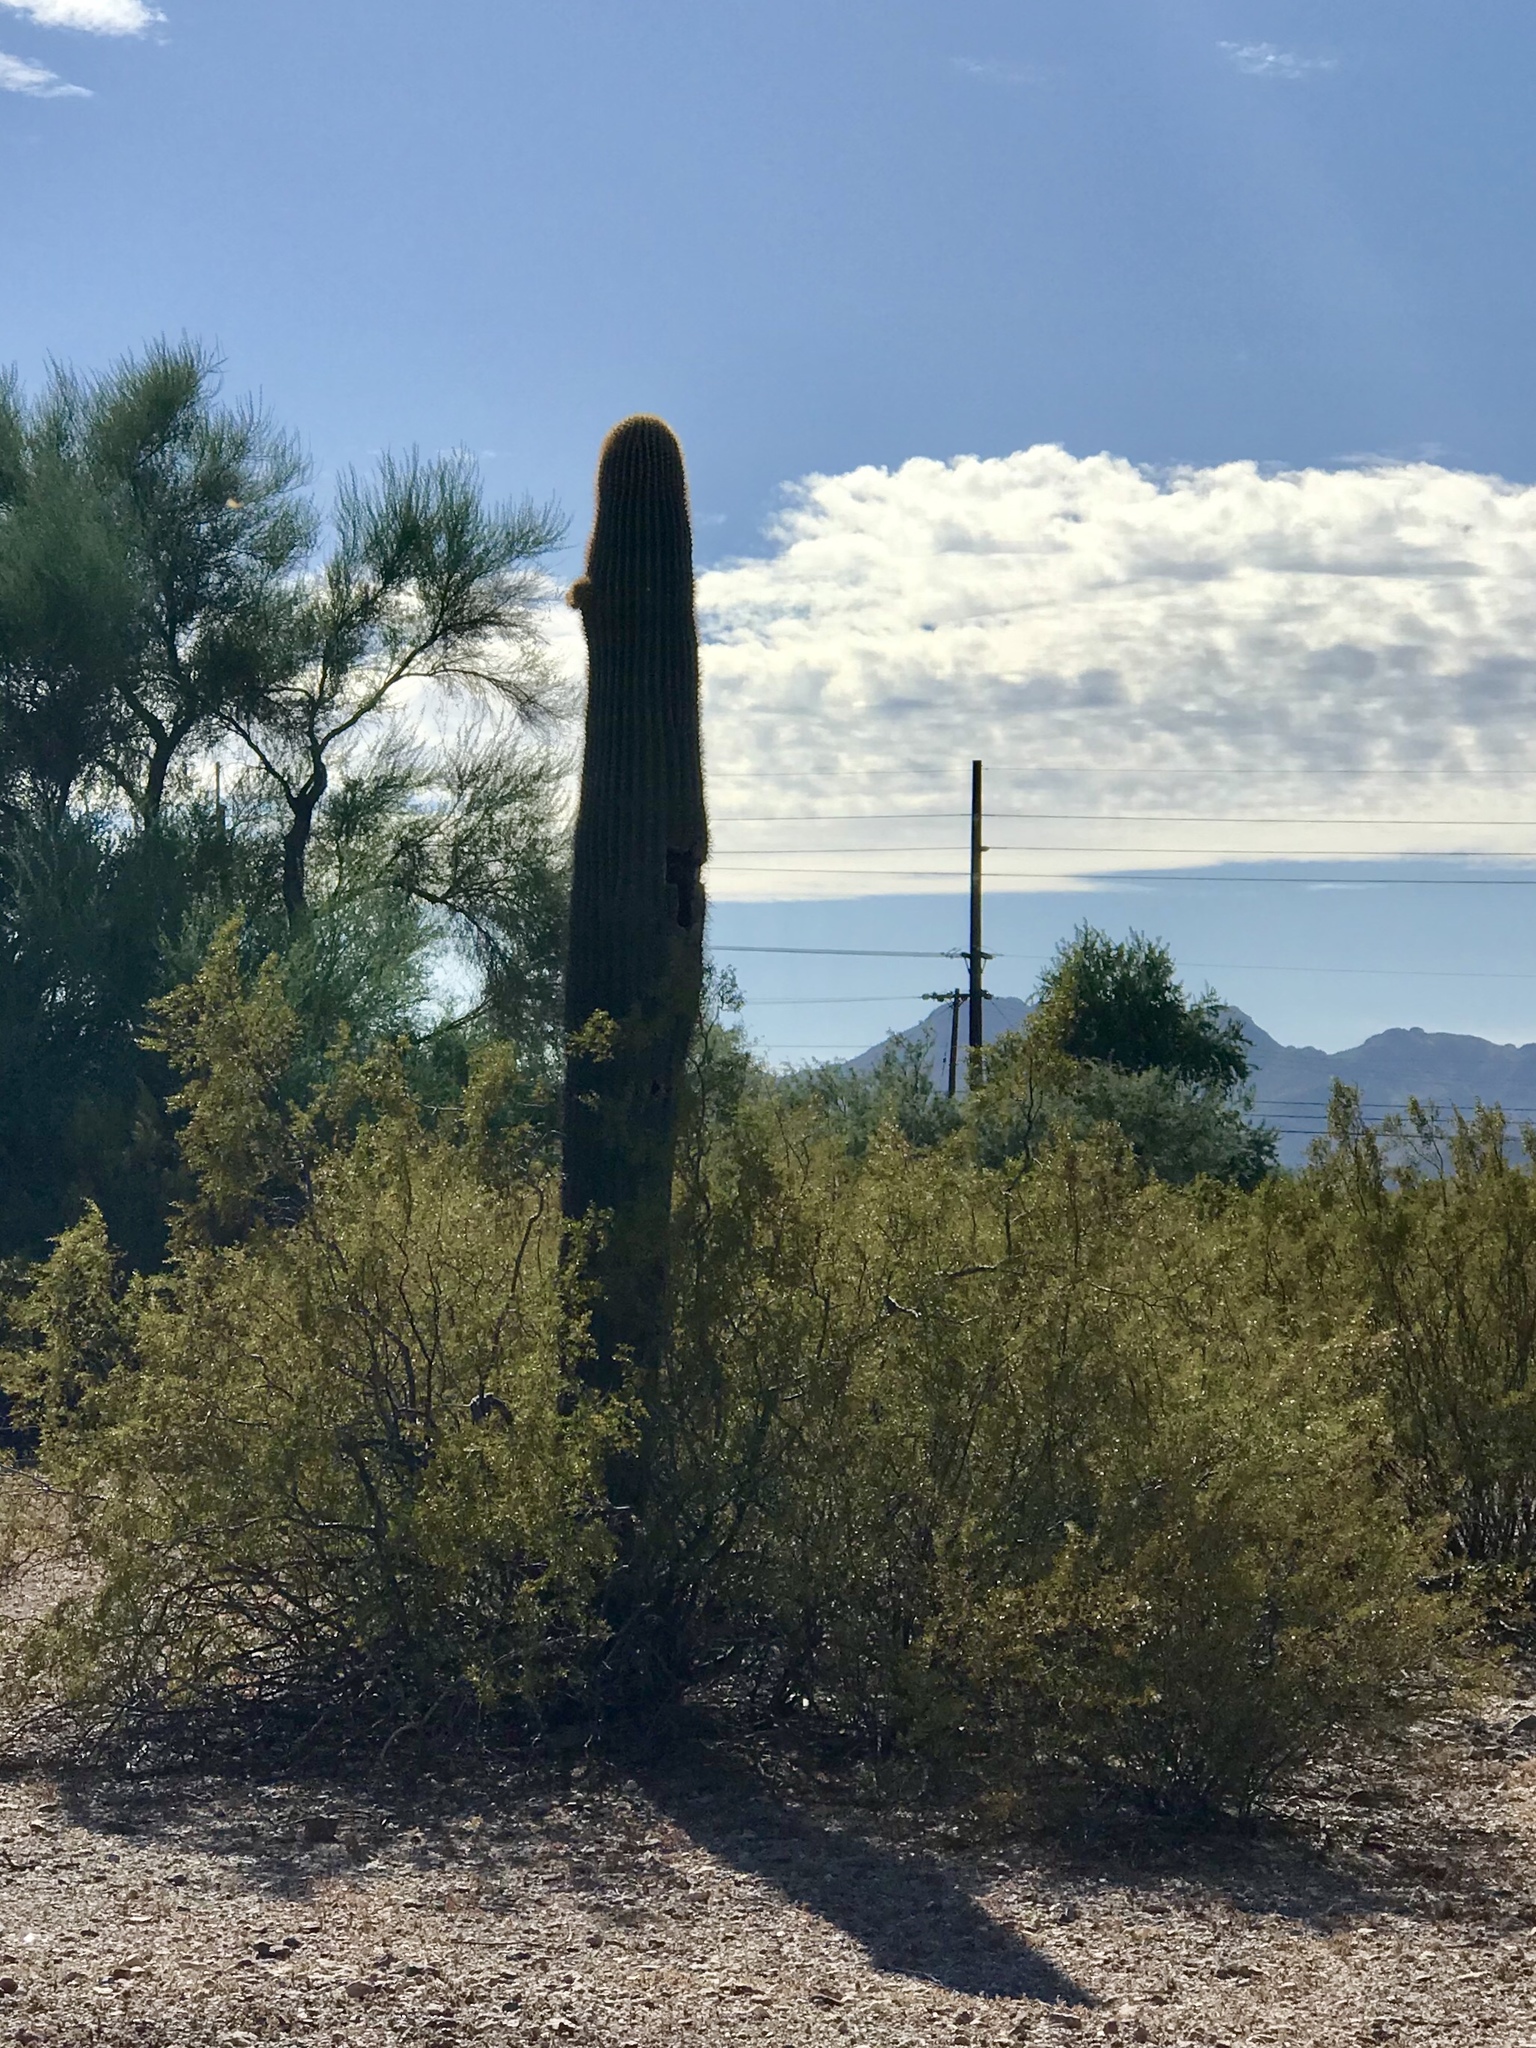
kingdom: Plantae
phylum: Tracheophyta
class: Magnoliopsida
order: Caryophyllales
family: Cactaceae
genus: Carnegiea
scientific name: Carnegiea gigantea
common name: Saguaro
